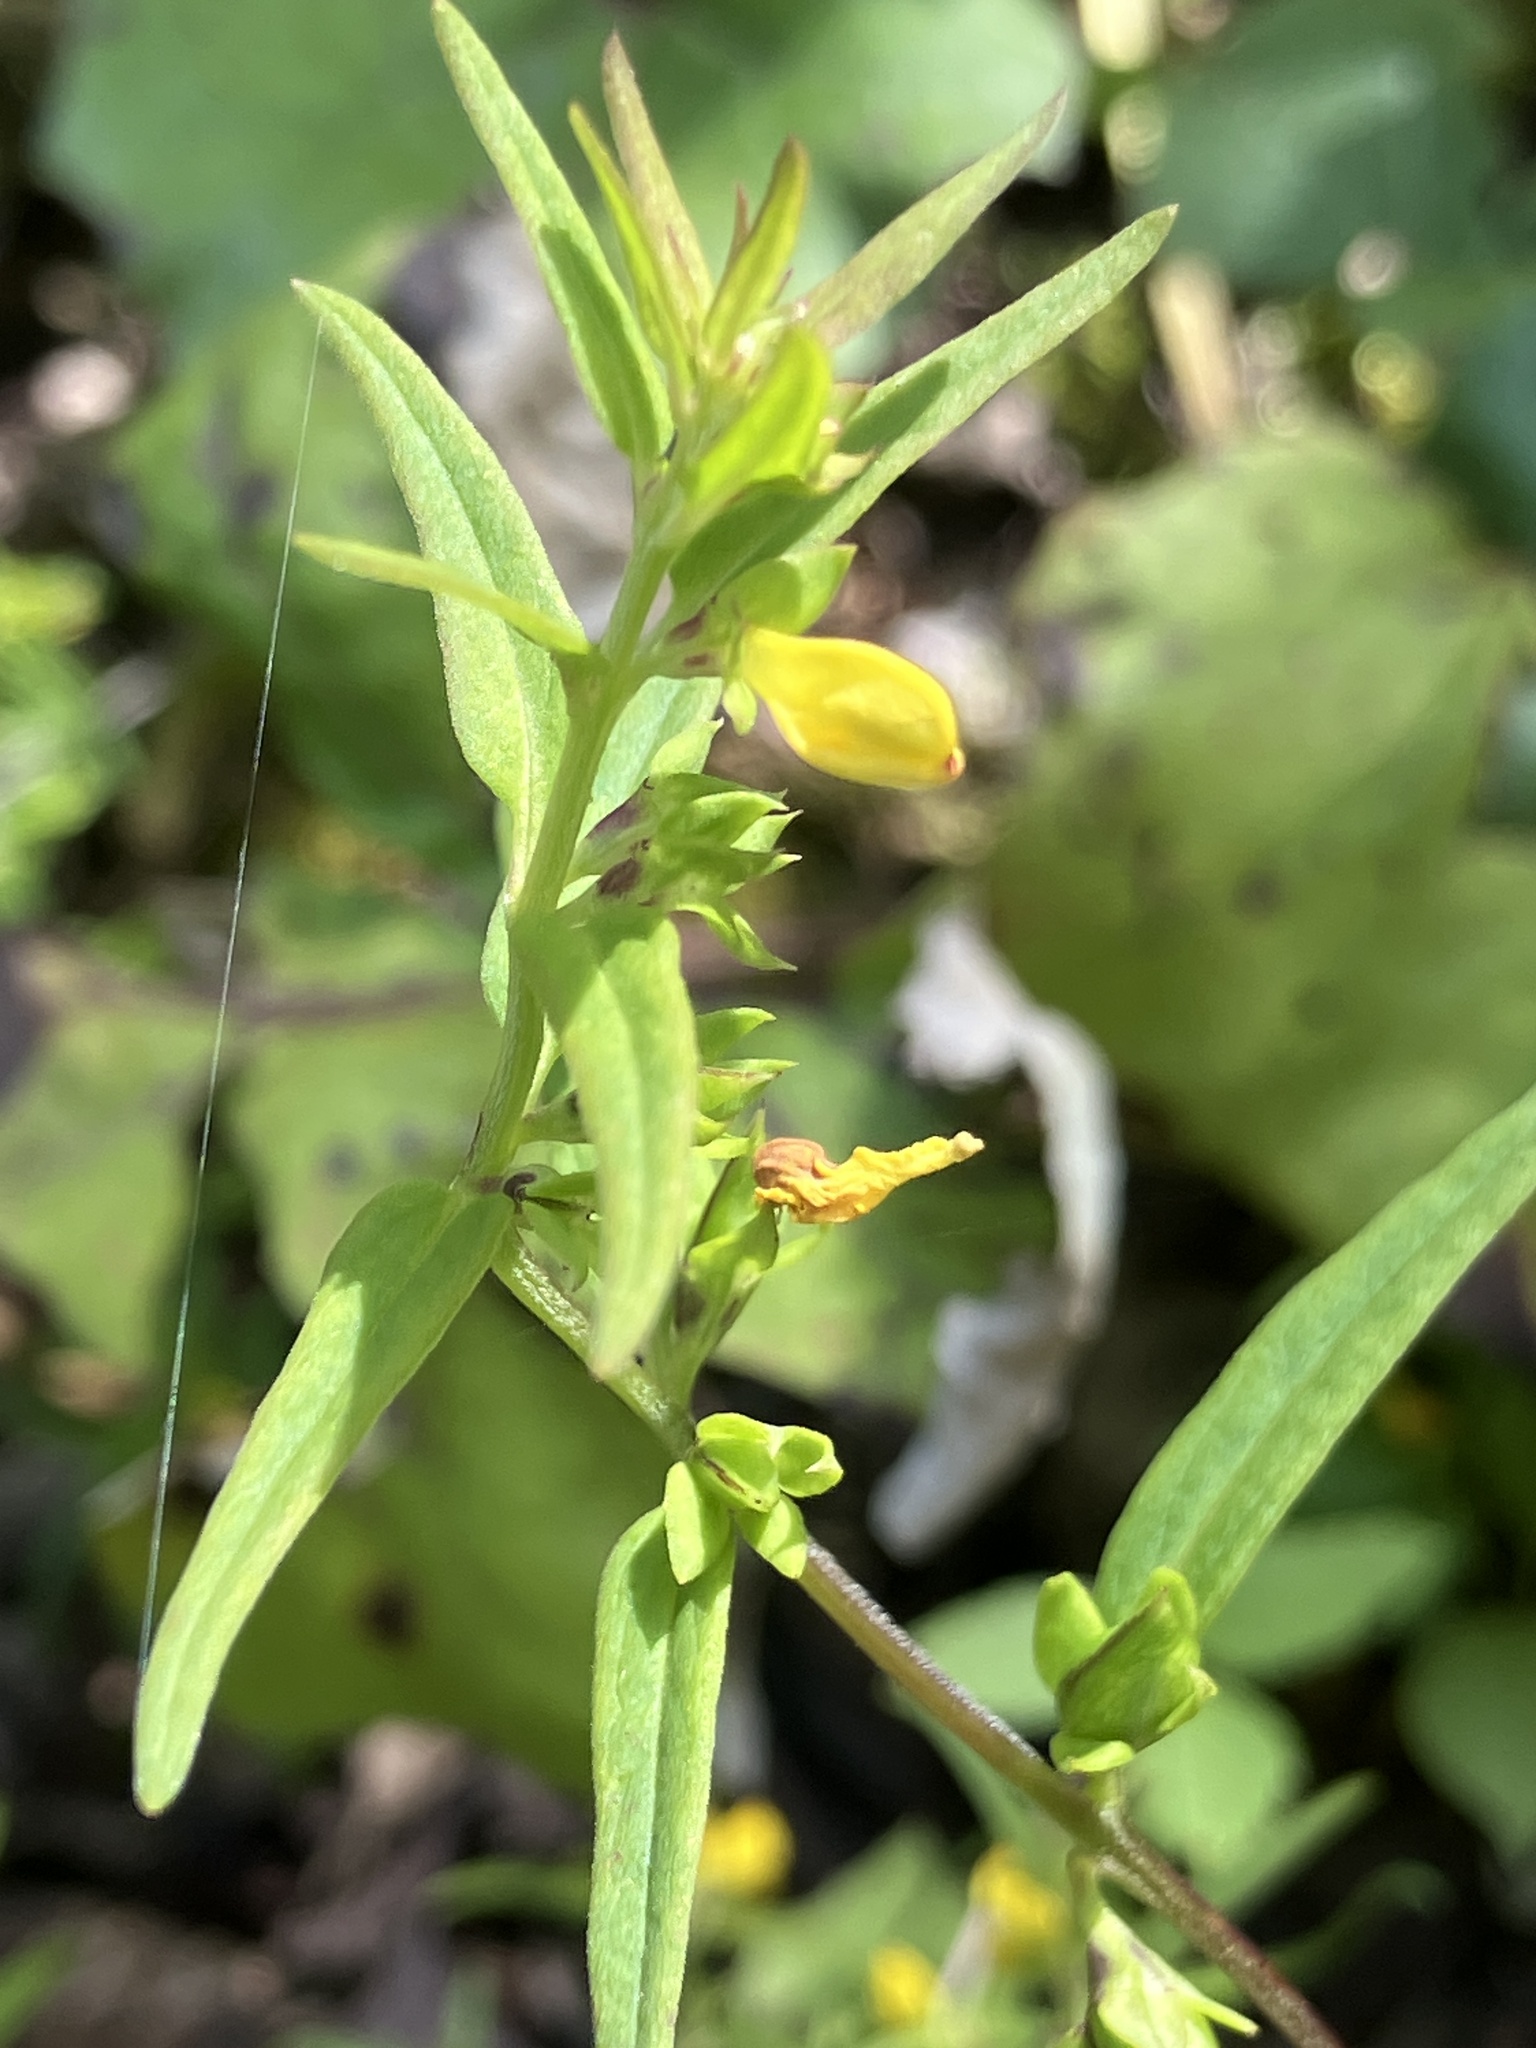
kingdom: Plantae
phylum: Tracheophyta
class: Magnoliopsida
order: Lamiales
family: Orobanchaceae
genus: Melampyrum
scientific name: Melampyrum sylvaticum
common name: Small cow-wheat
